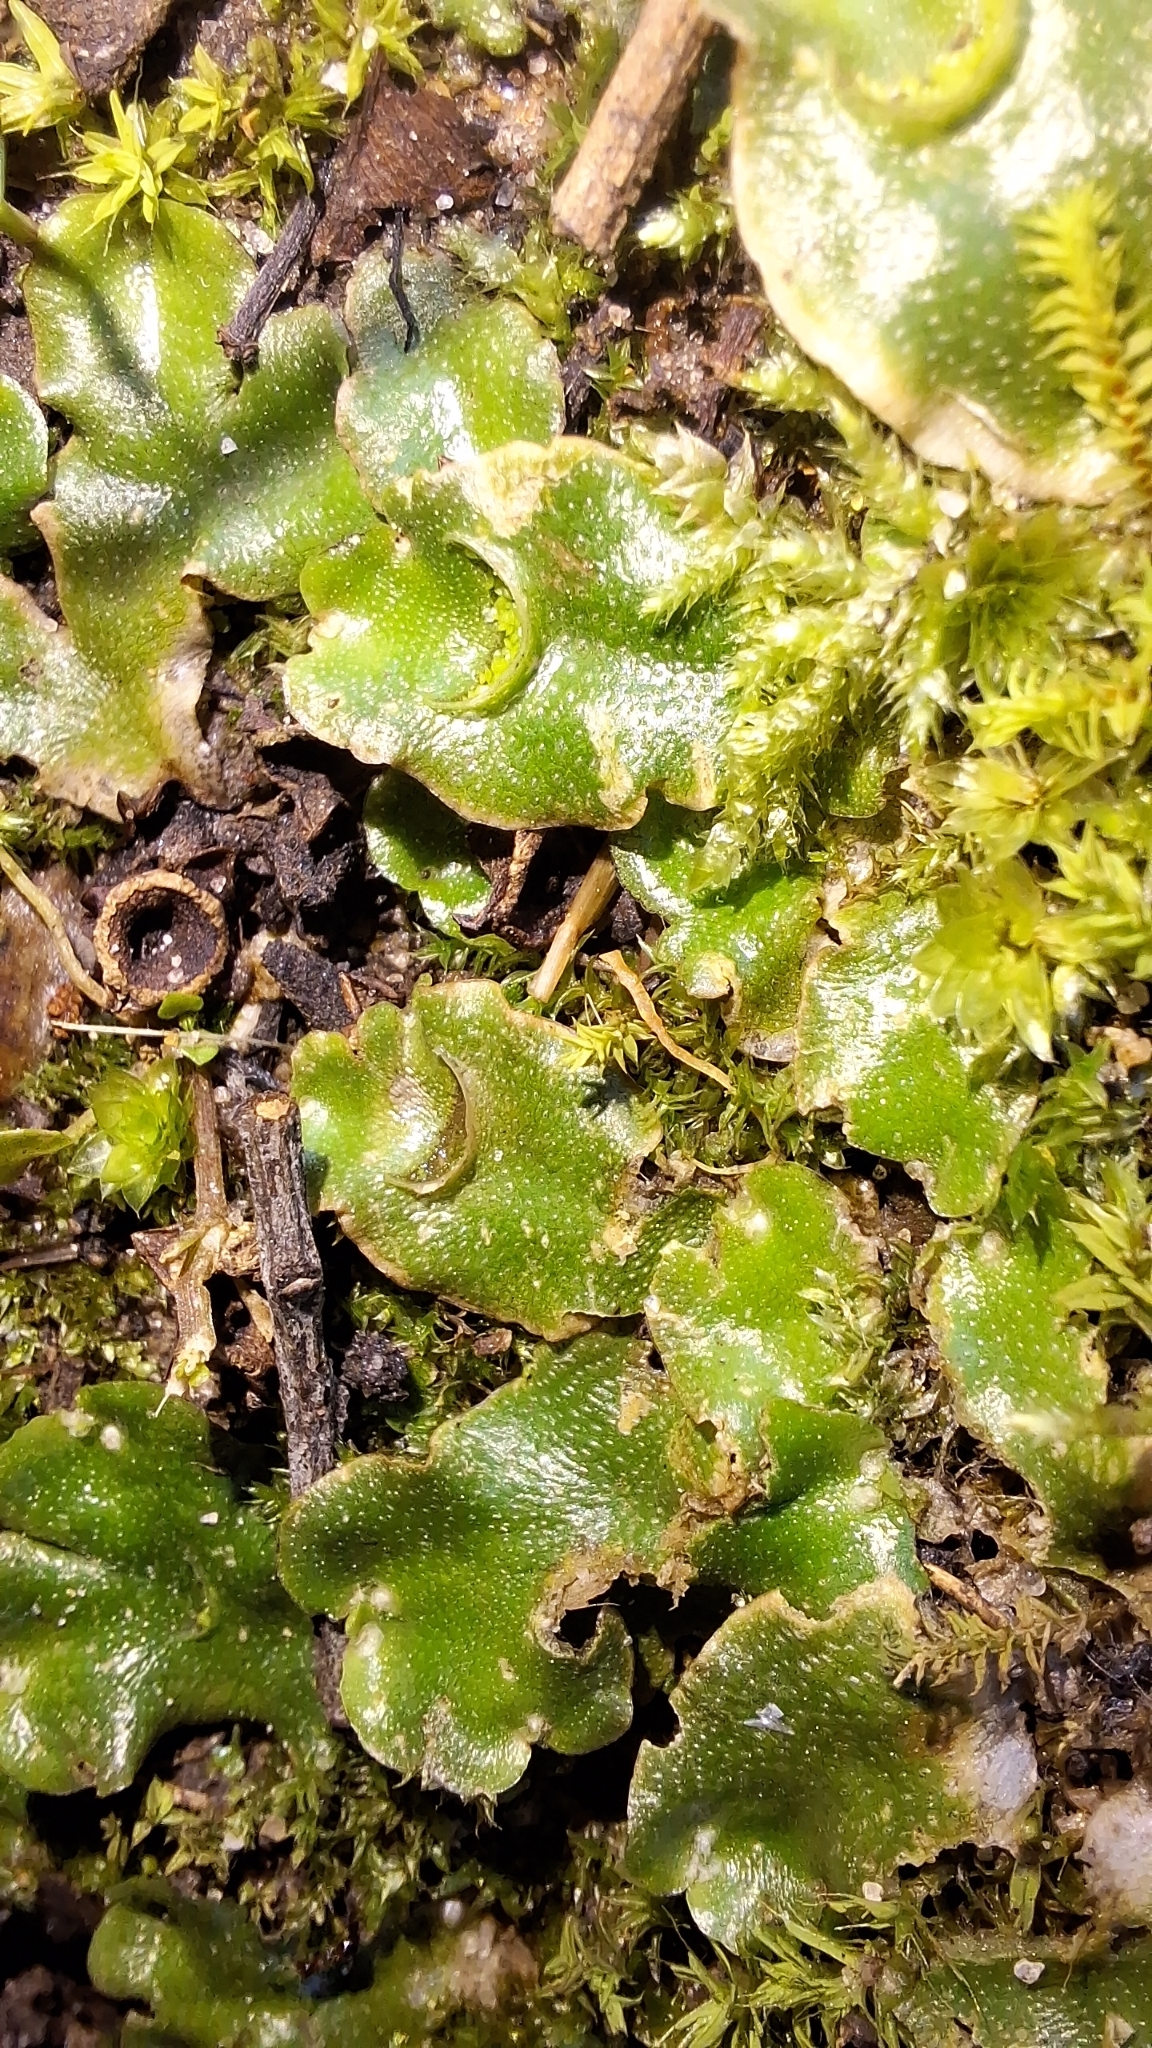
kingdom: Plantae
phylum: Marchantiophyta
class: Marchantiopsida
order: Lunulariales
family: Lunulariaceae
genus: Lunularia
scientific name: Lunularia cruciata
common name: Crescent-cup liverwort
